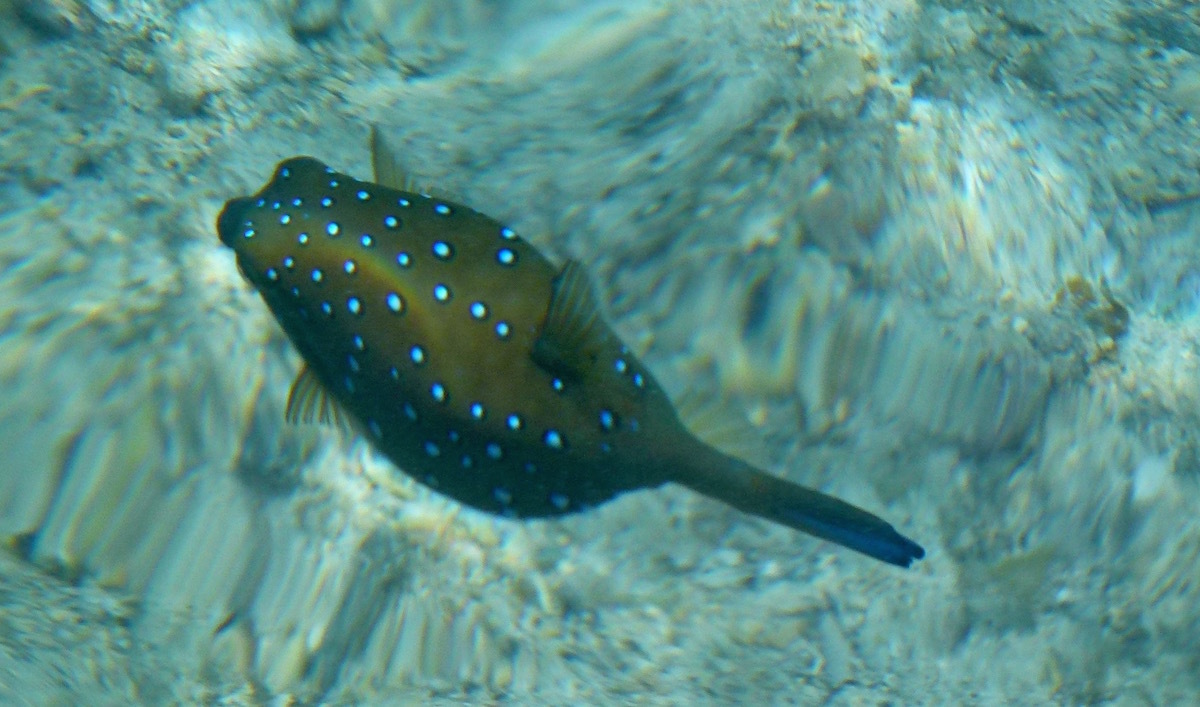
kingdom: Animalia
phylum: Chordata
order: Tetraodontiformes
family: Ostraciidae
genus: Ostracion
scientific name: Ostracion cubicus
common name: Cube trunkfish
